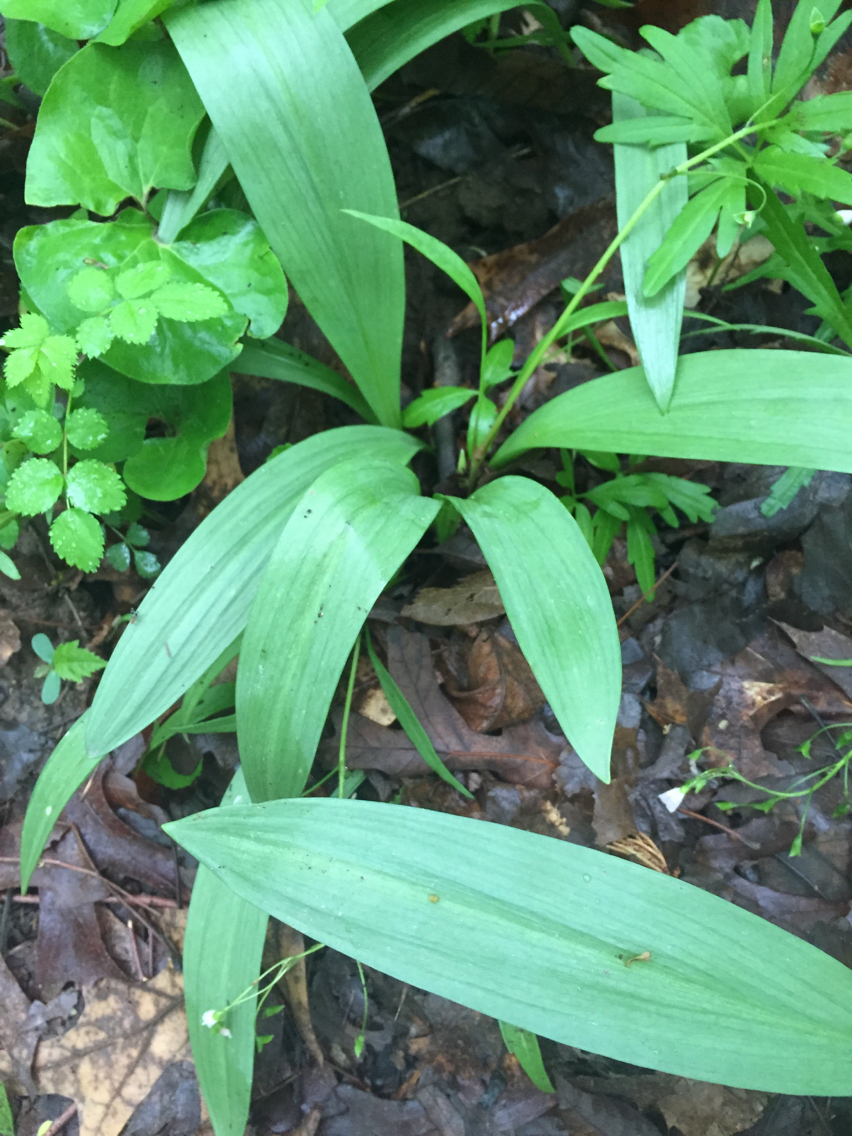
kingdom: Plantae
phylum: Tracheophyta
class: Liliopsida
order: Asparagales
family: Amaryllidaceae
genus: Allium
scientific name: Allium tricoccum
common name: Ramp
